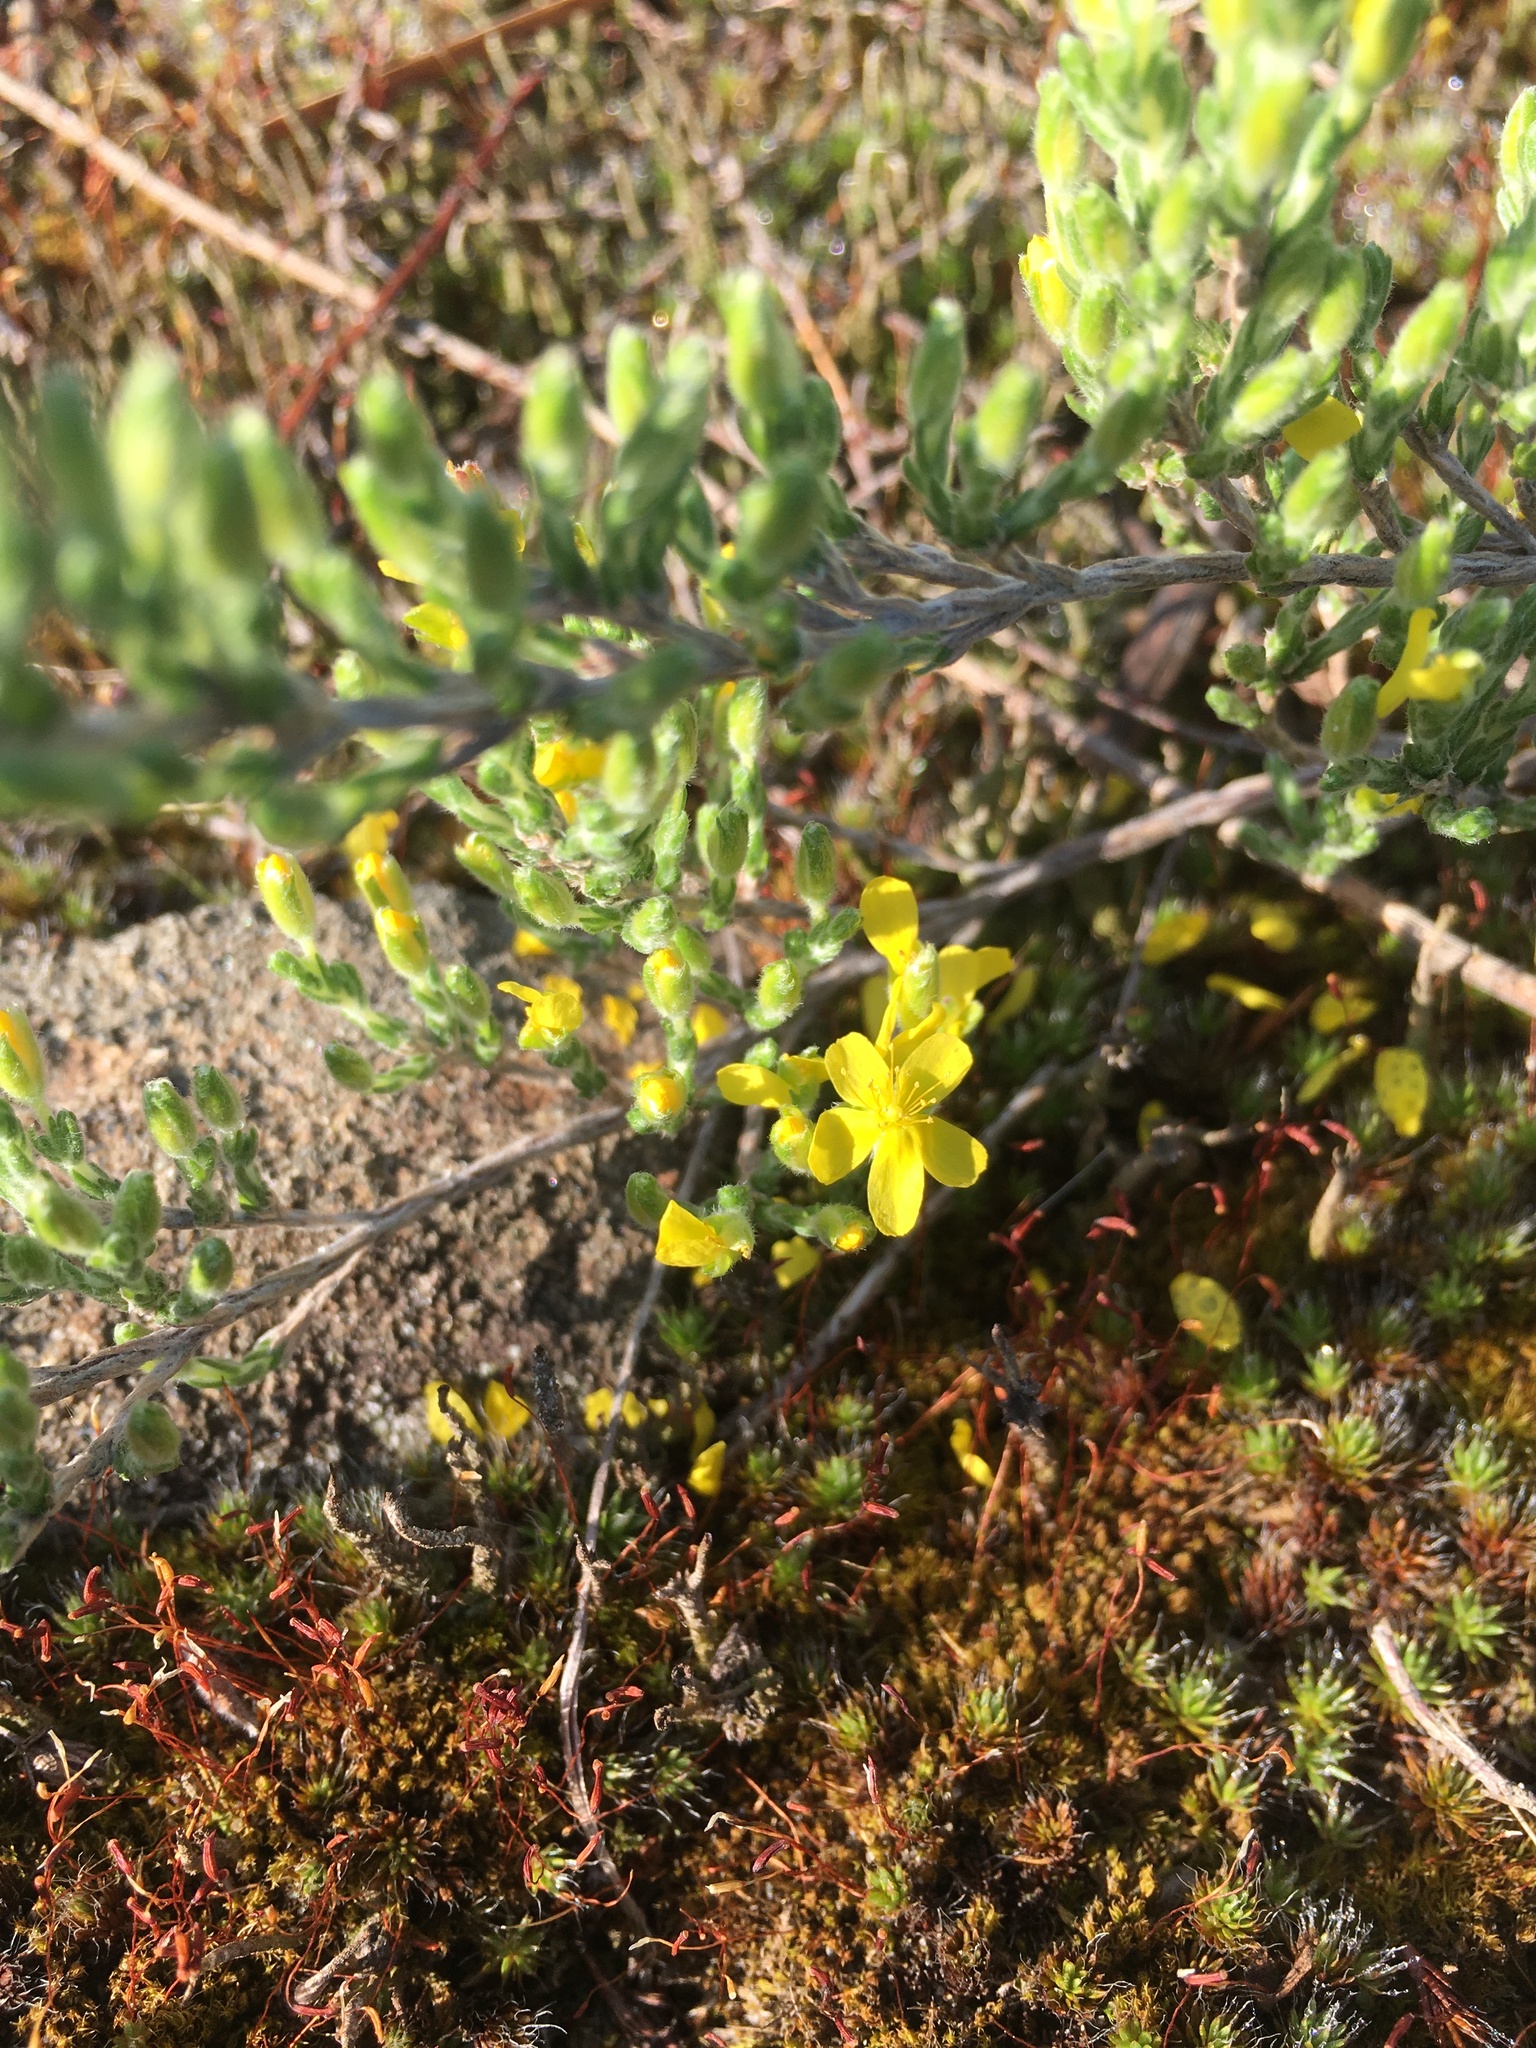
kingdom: Plantae
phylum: Tracheophyta
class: Magnoliopsida
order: Malvales
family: Cistaceae
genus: Hudsonia
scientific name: Hudsonia tomentosa
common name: Beach-heath
